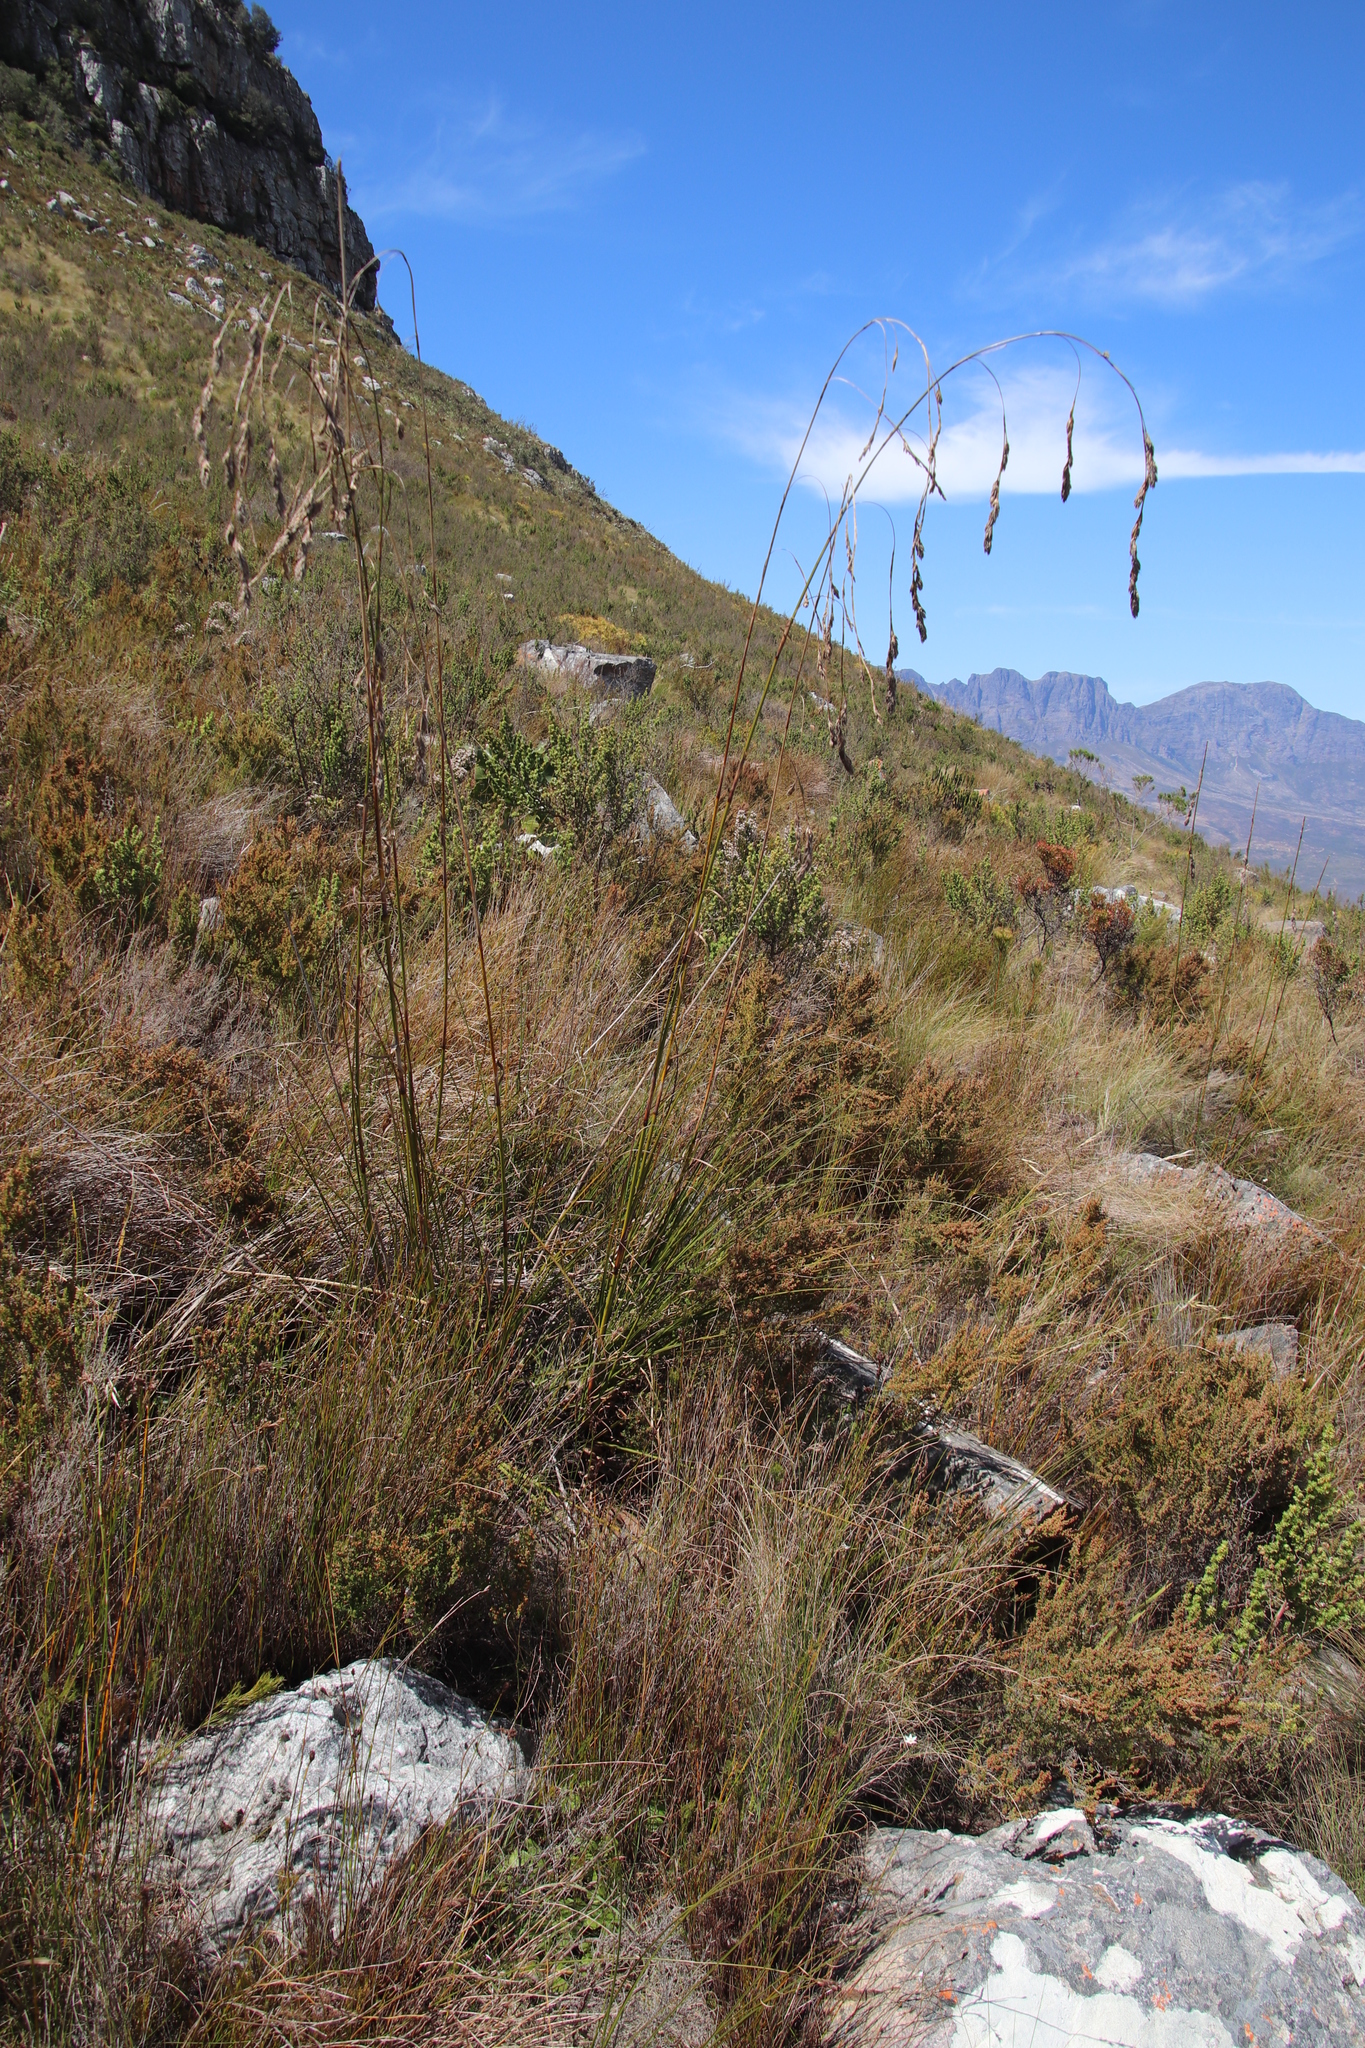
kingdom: Plantae
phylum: Tracheophyta
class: Liliopsida
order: Poales
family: Cyperaceae
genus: Tetraria
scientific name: Tetraria bromoides
